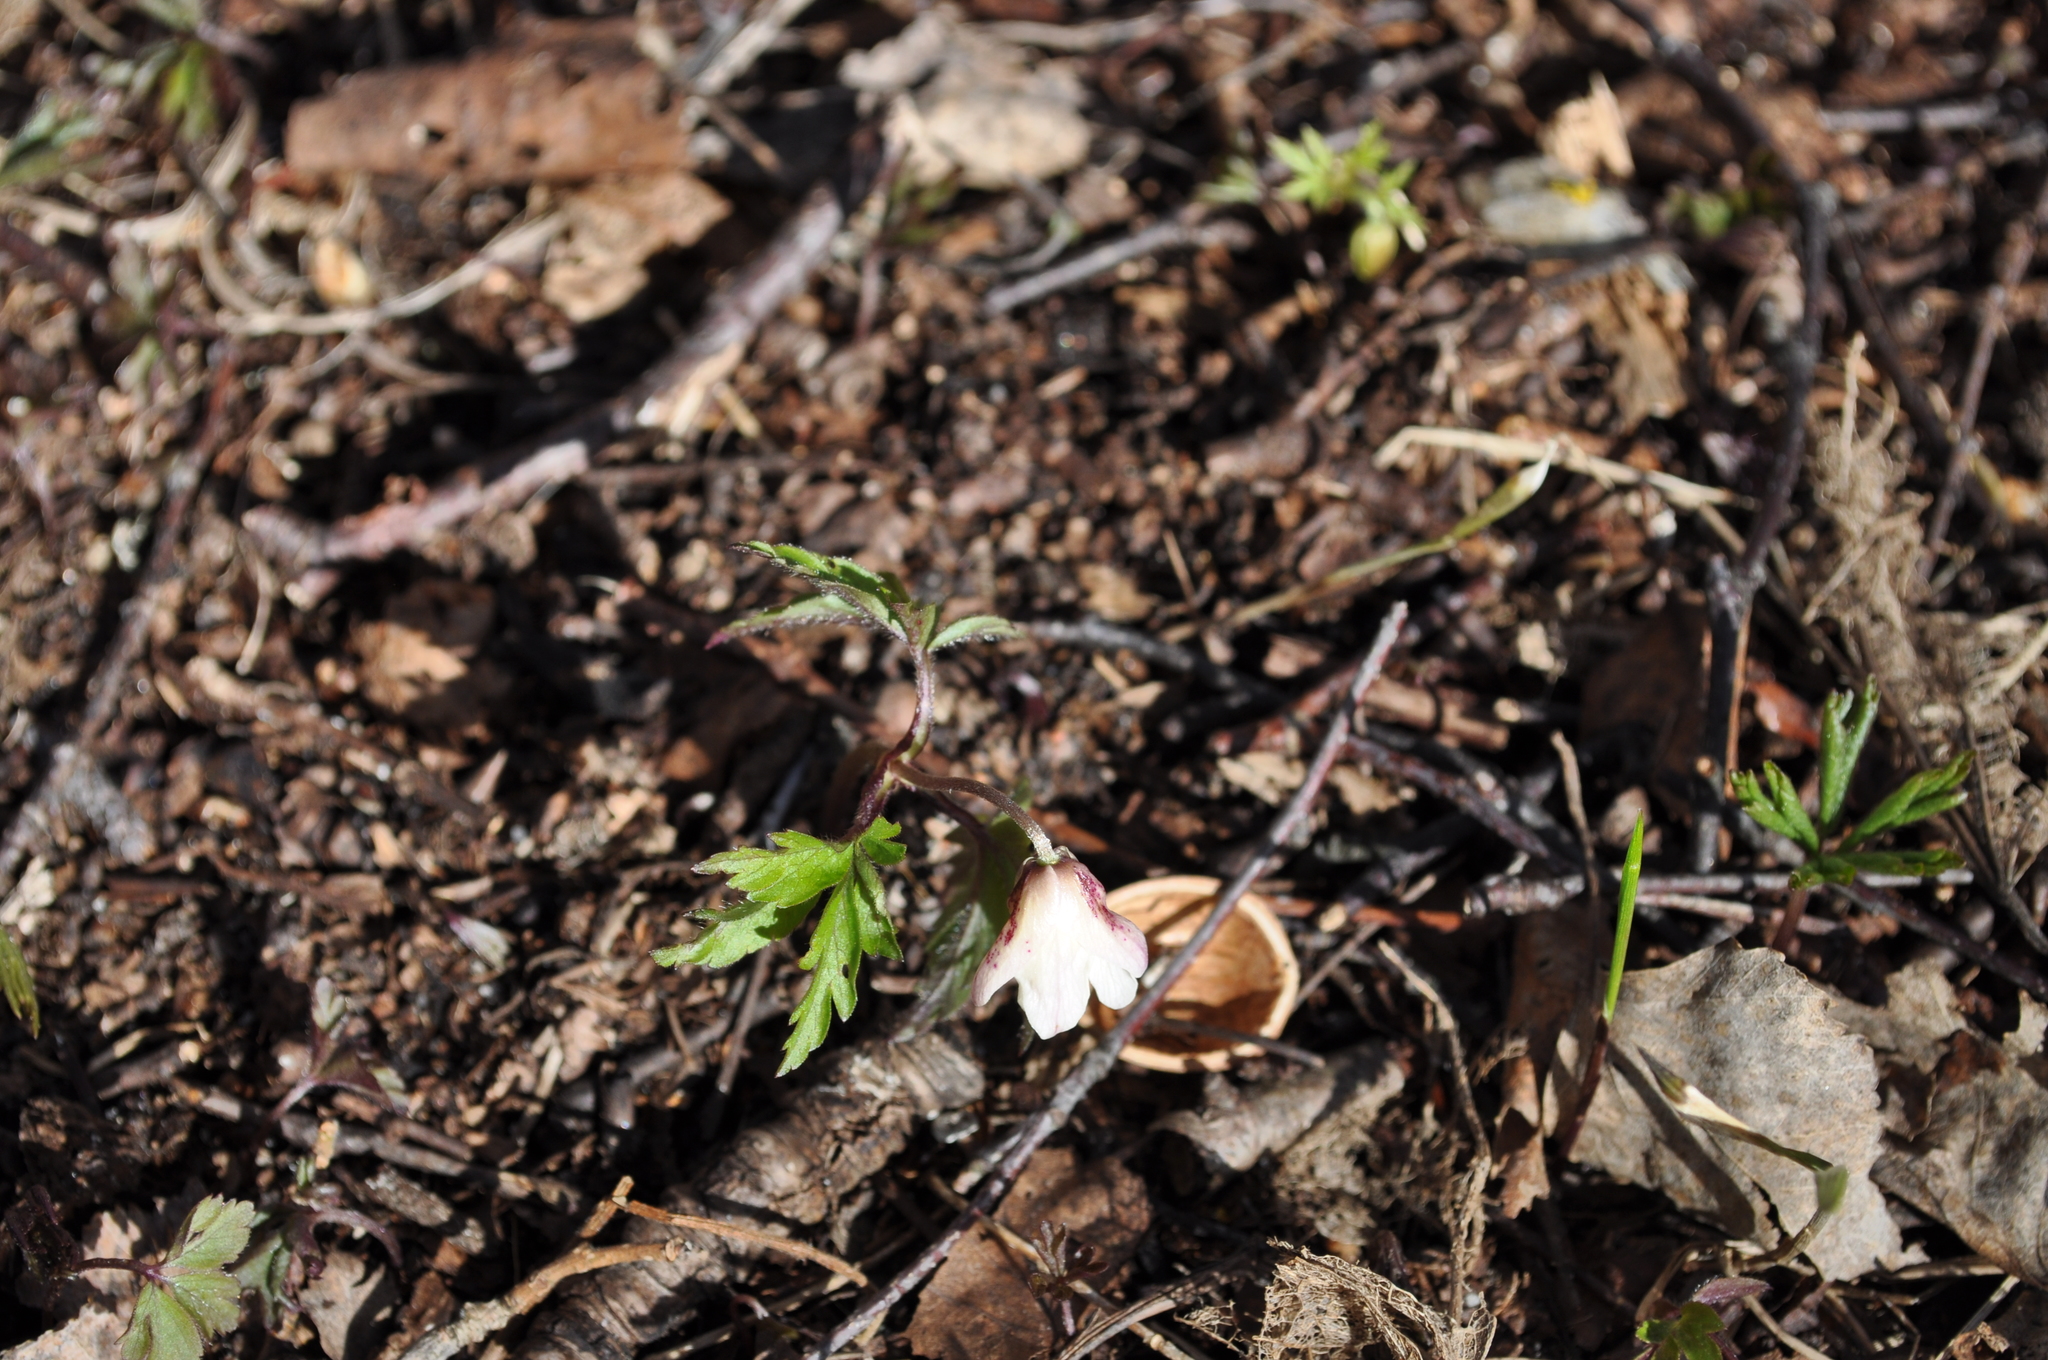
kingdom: Plantae
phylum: Tracheophyta
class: Magnoliopsida
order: Ranunculales
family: Ranunculaceae
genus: Hepatica
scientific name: Hepatica nobilis
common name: Liverleaf
